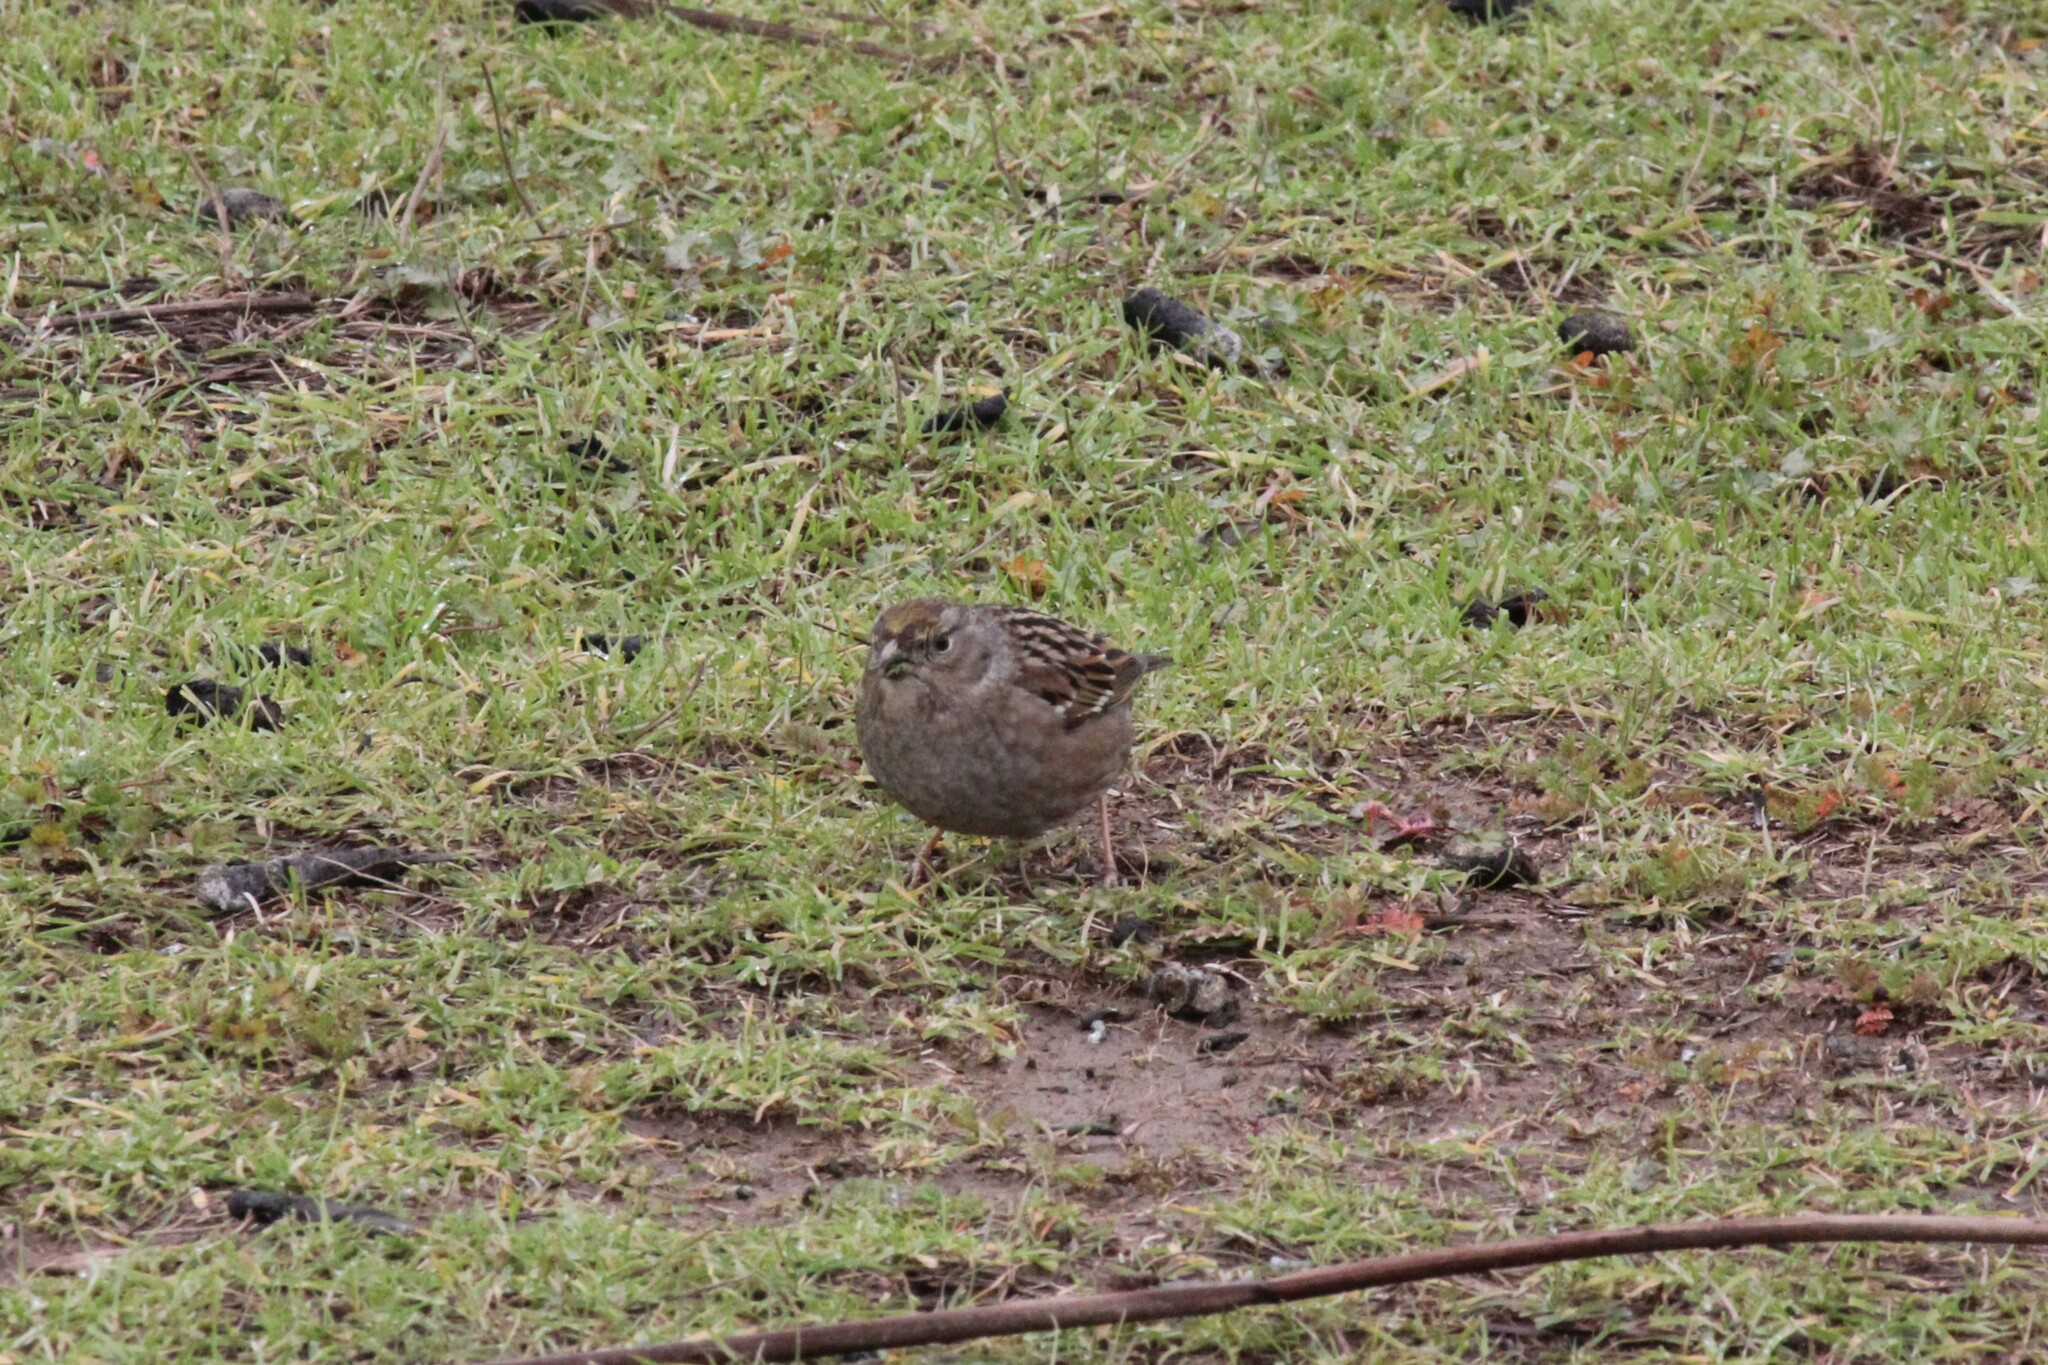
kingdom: Animalia
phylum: Chordata
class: Aves
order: Passeriformes
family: Passerellidae
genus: Zonotrichia
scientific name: Zonotrichia atricapilla
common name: Golden-crowned sparrow
